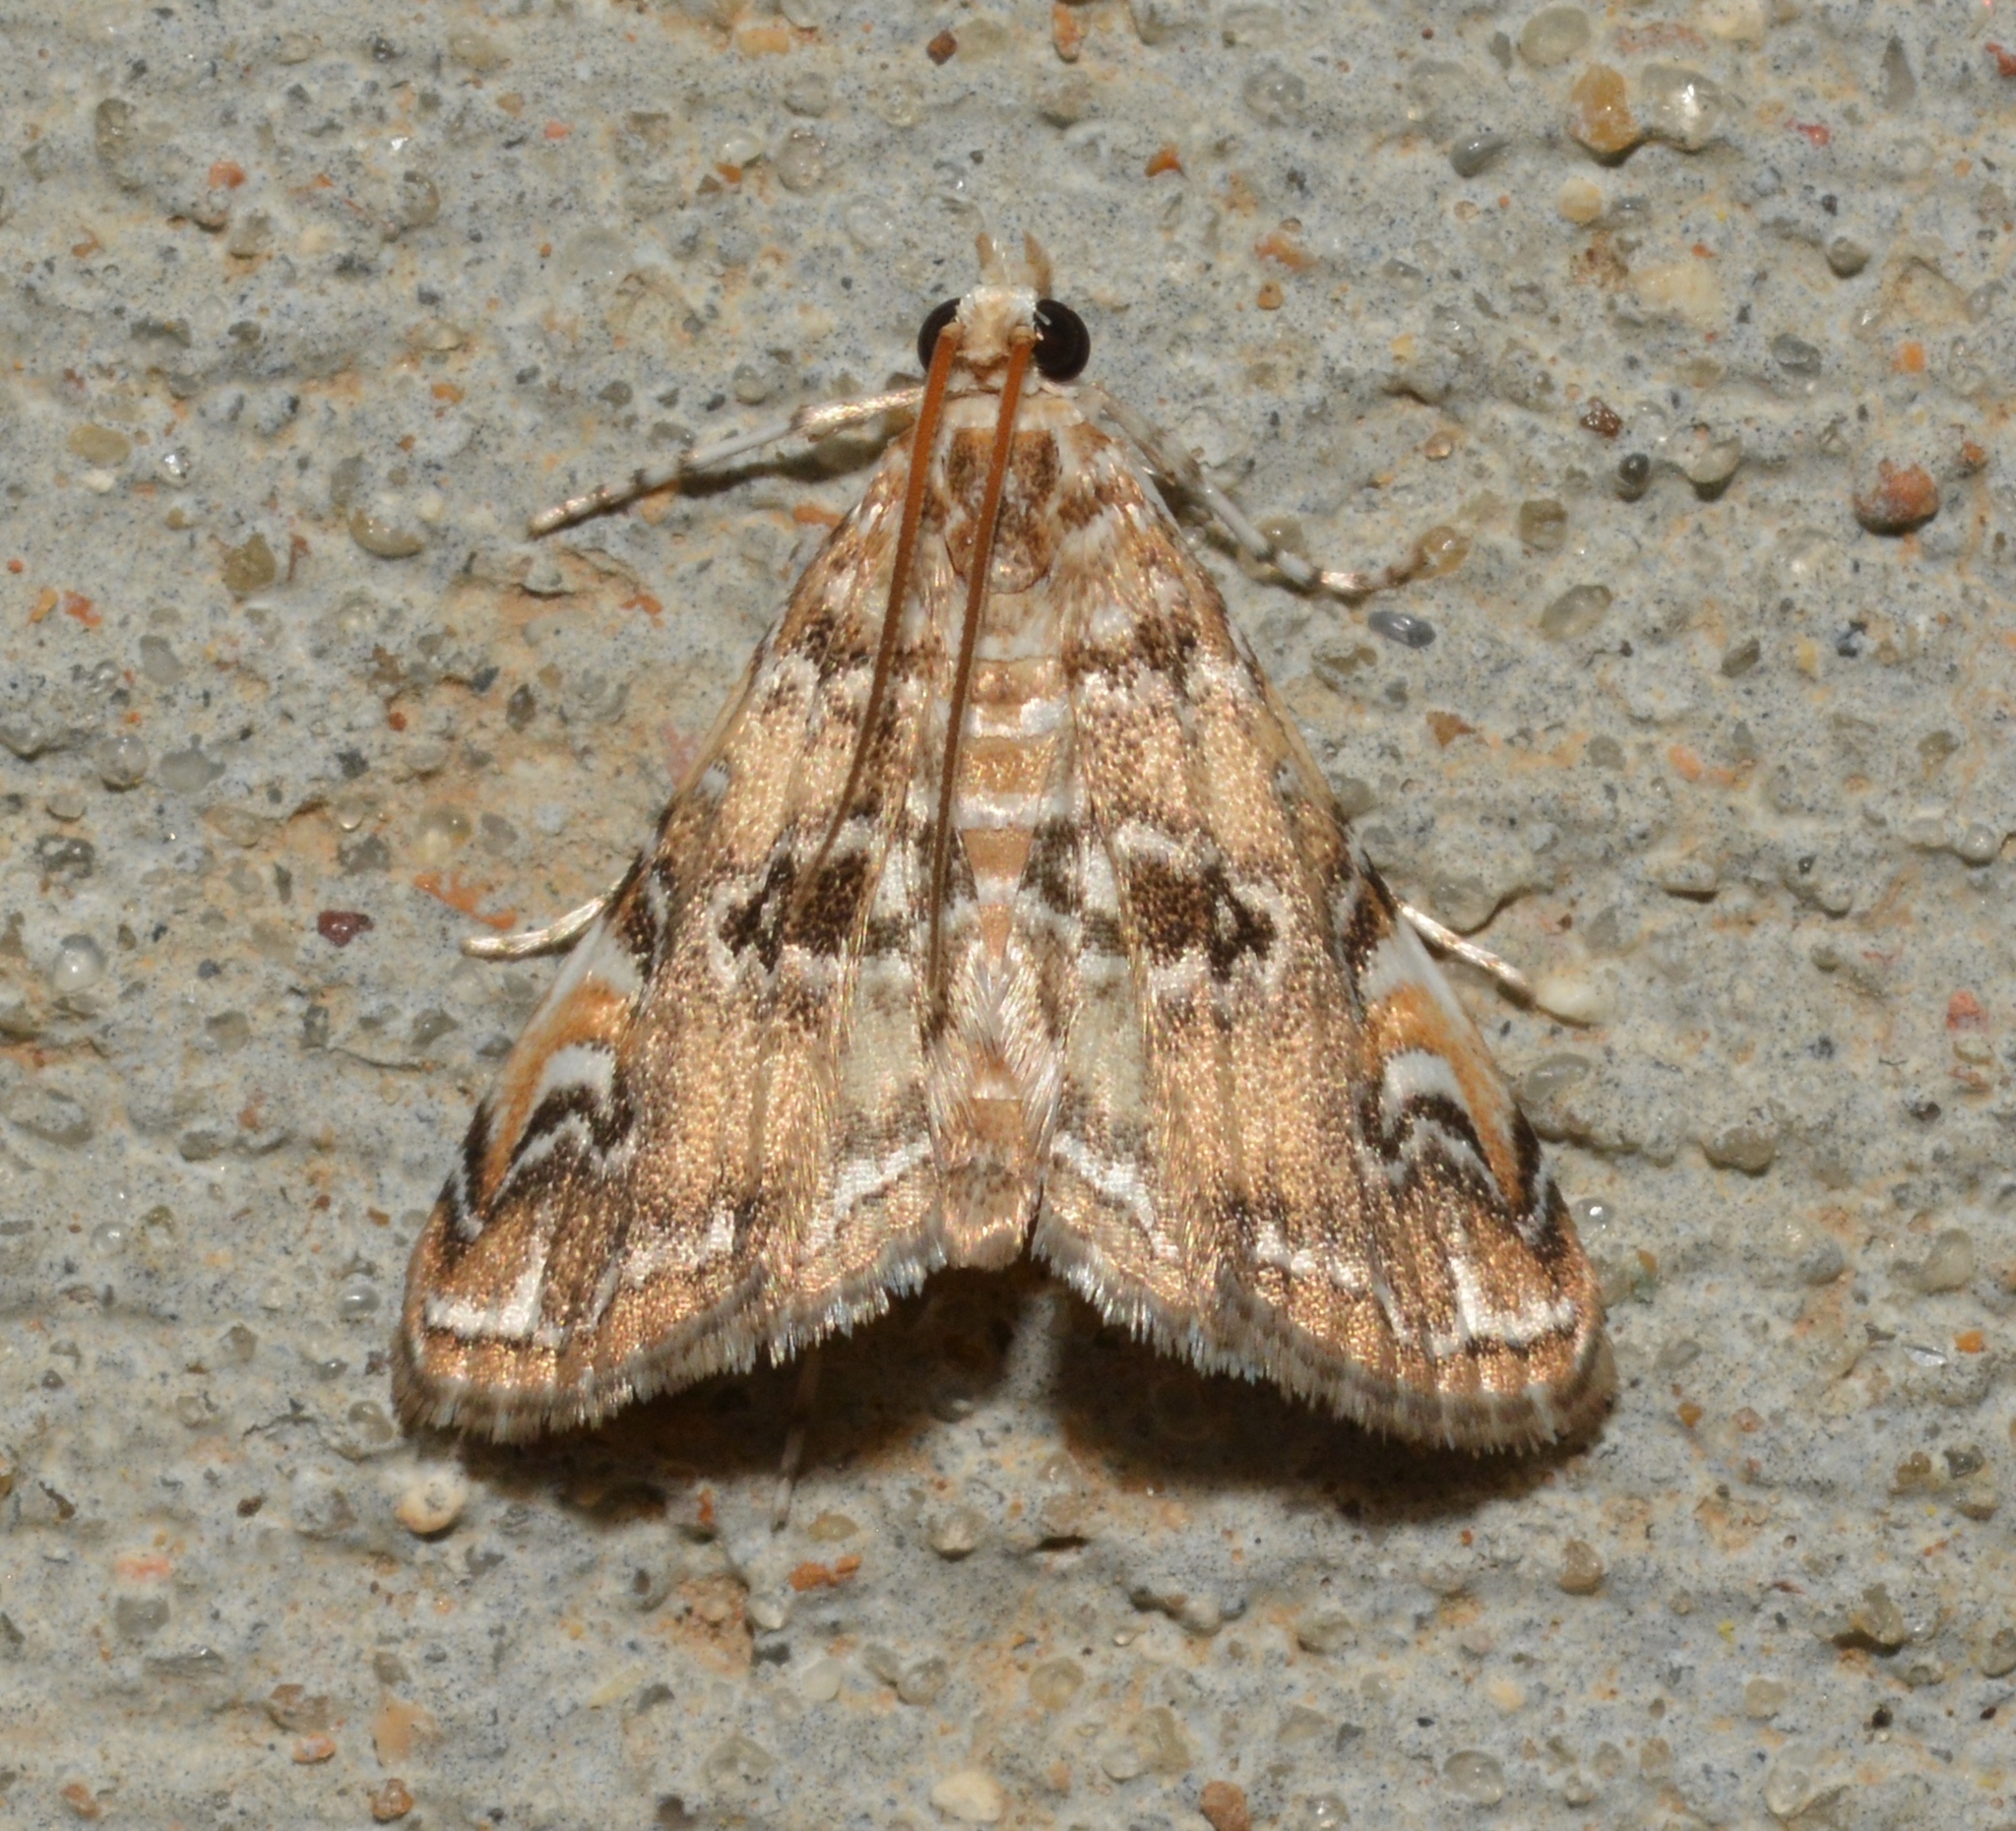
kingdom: Animalia
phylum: Arthropoda
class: Insecta
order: Lepidoptera
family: Crambidae
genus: Elophila
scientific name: Elophila gyralis
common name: Waterlily borer moth
